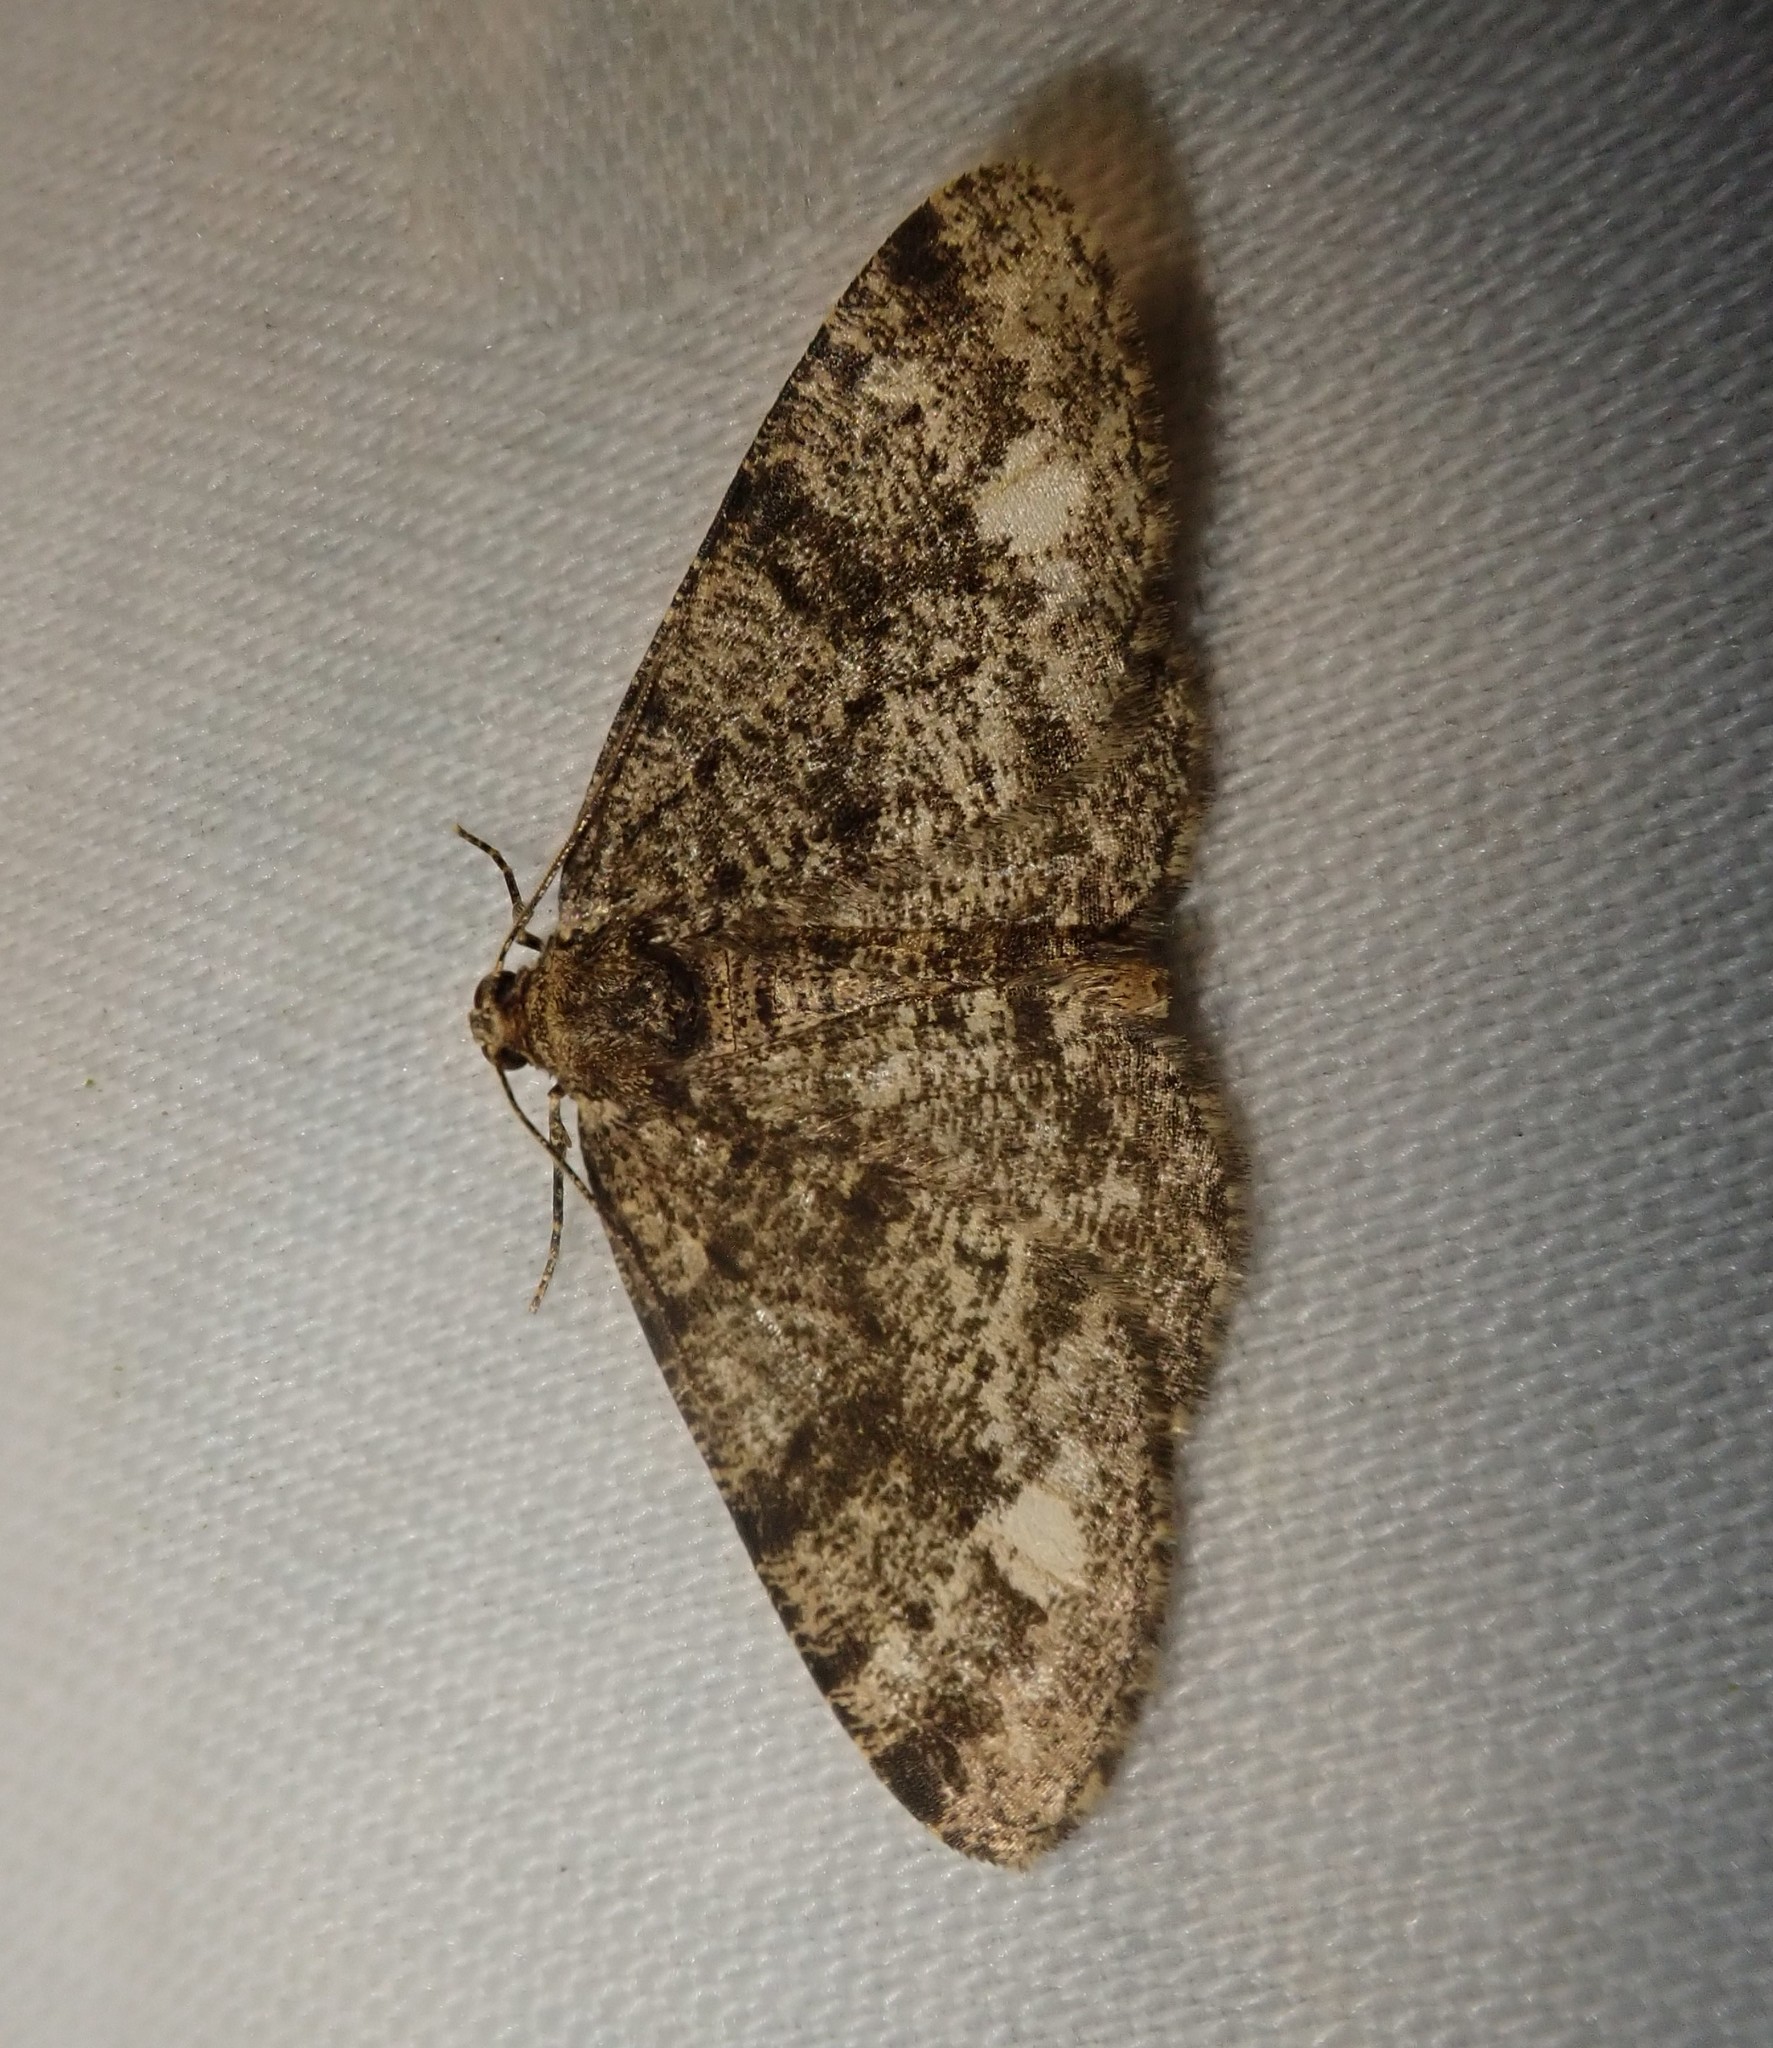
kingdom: Animalia
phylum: Arthropoda
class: Insecta
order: Lepidoptera
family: Geometridae
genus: Parectropis
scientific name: Parectropis similaria
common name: Brindled white-spot
